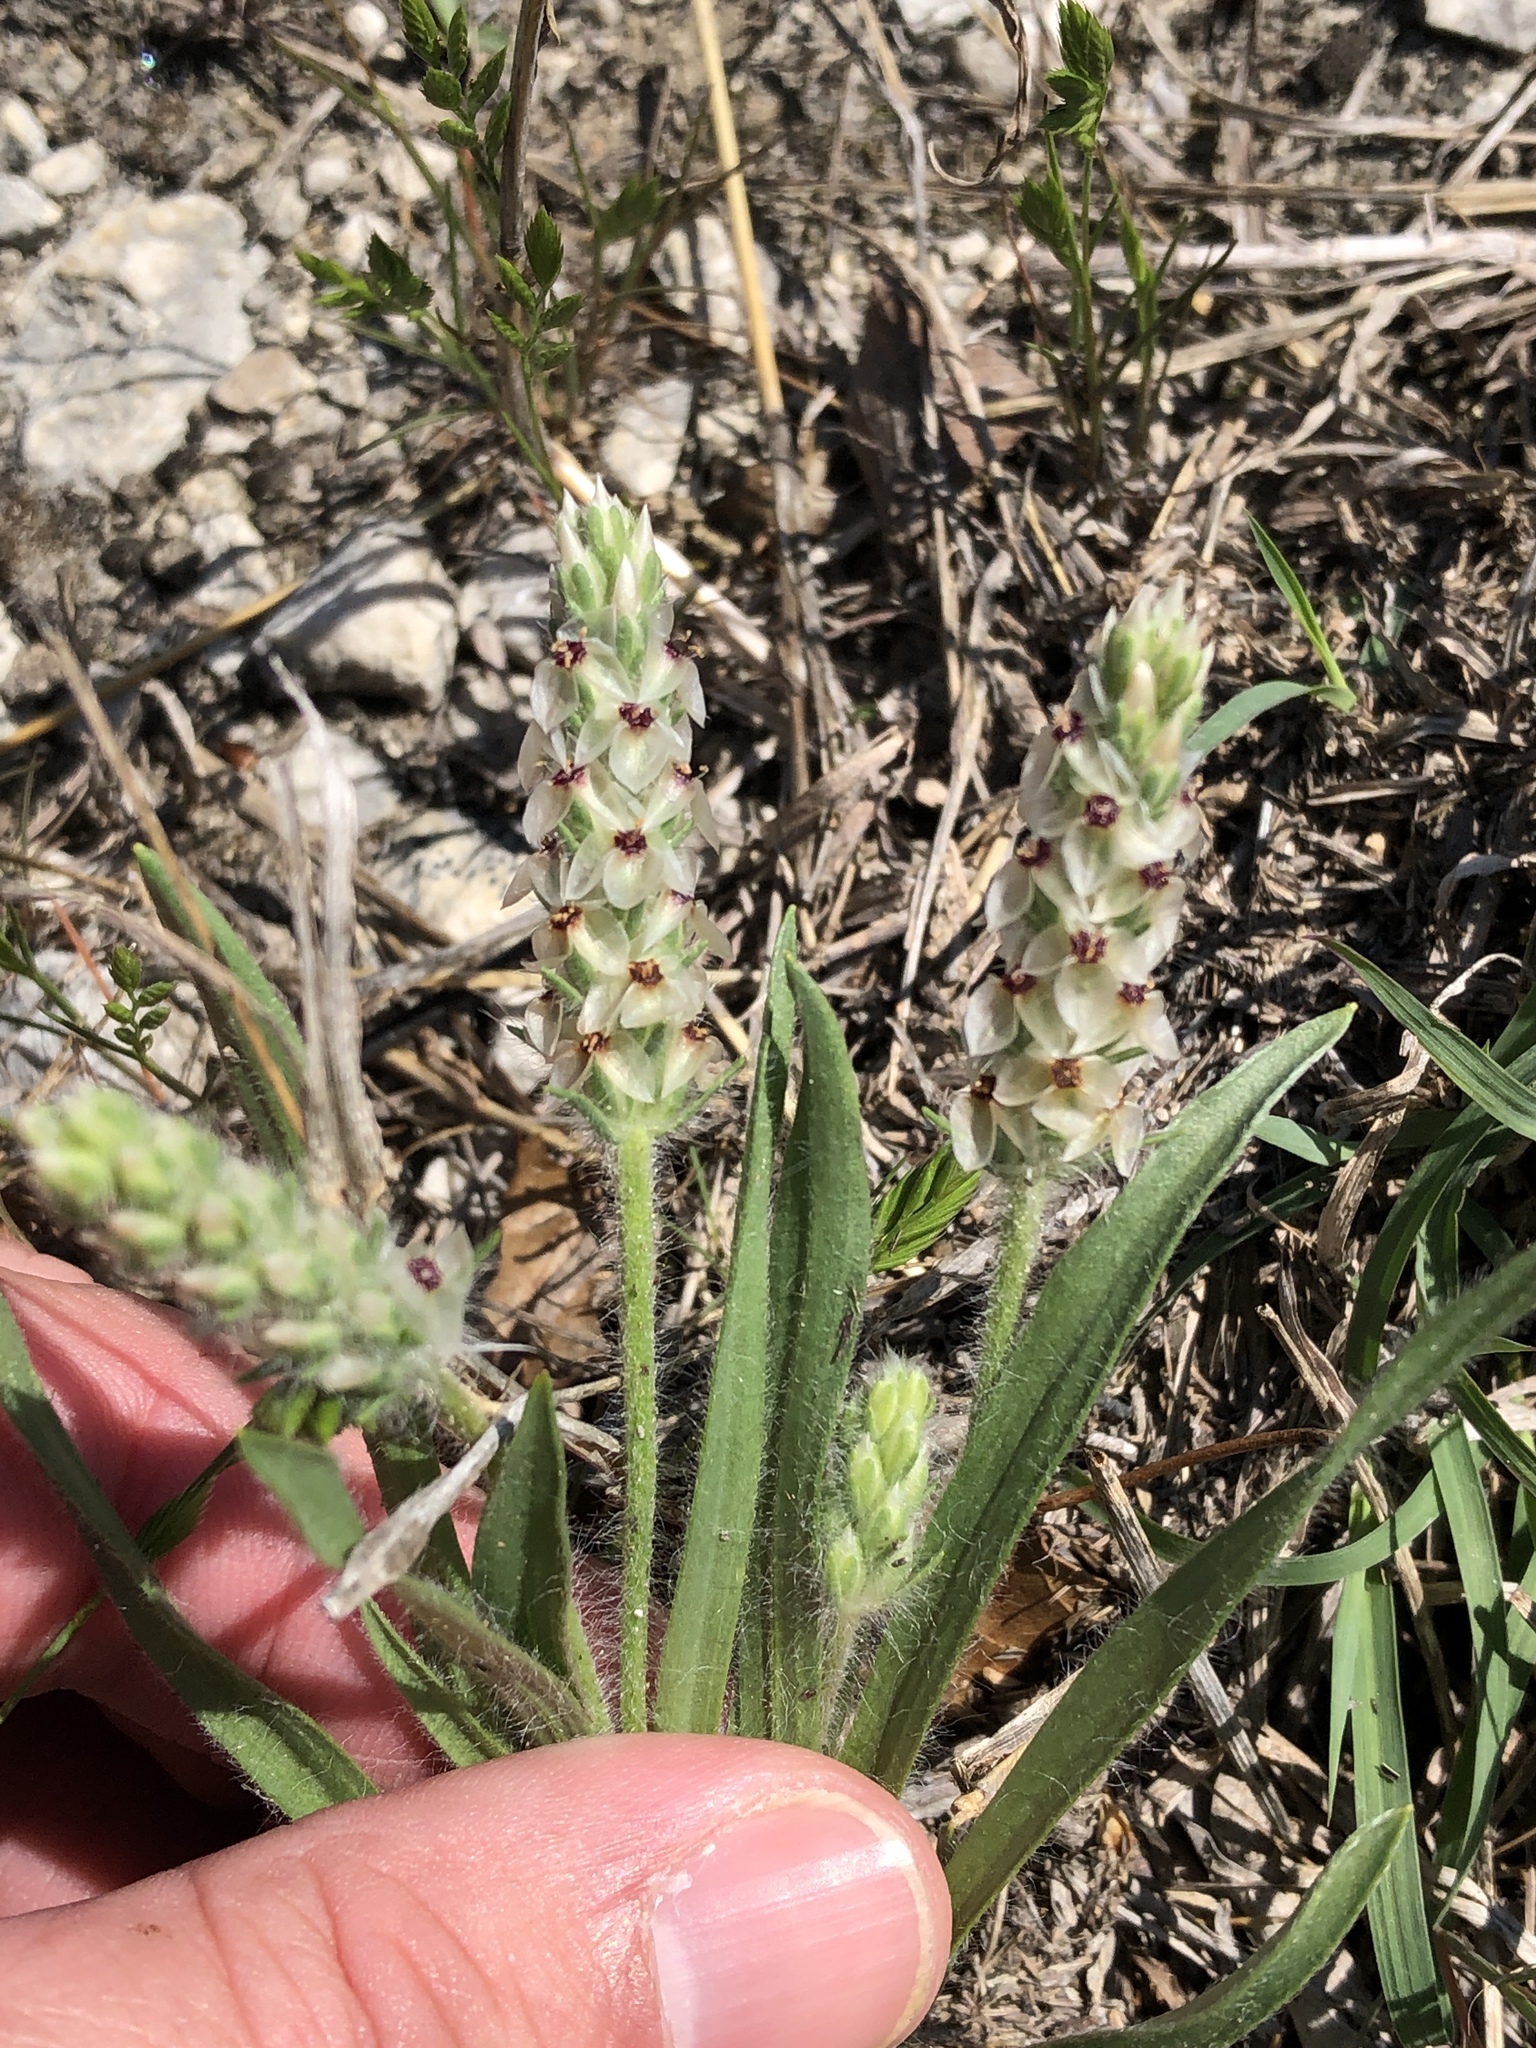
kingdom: Plantae
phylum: Tracheophyta
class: Magnoliopsida
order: Lamiales
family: Plantaginaceae
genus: Plantago
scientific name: Plantago helleri
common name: Heller's plantain
